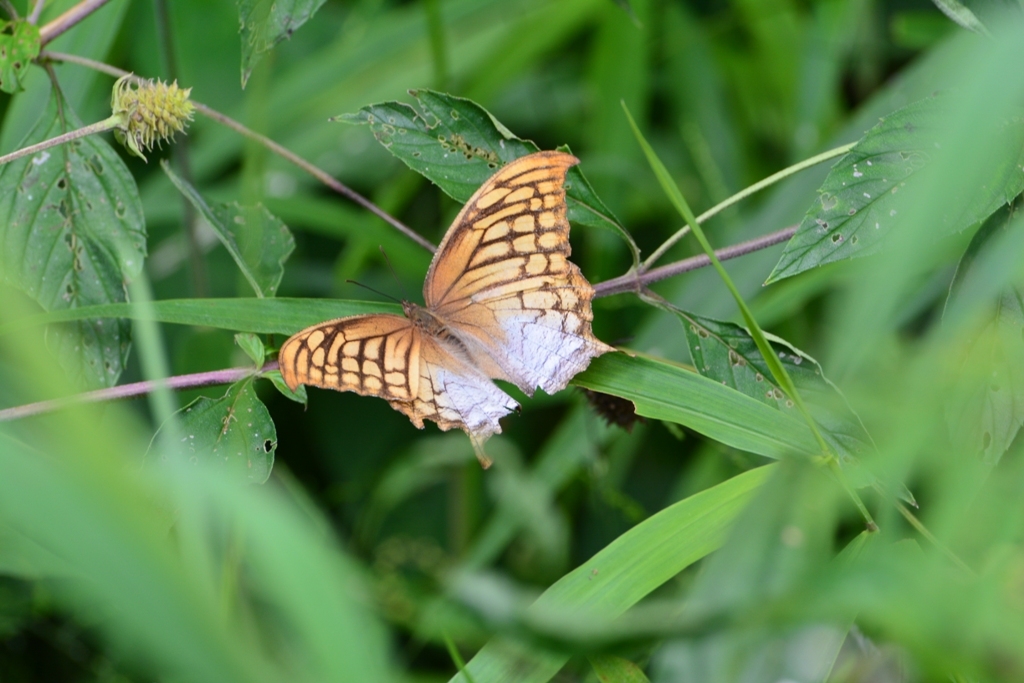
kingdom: Animalia
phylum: Arthropoda
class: Insecta
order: Lepidoptera
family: Nymphalidae
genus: Consul
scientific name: Consul excellens
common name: Black-veined leafwing
